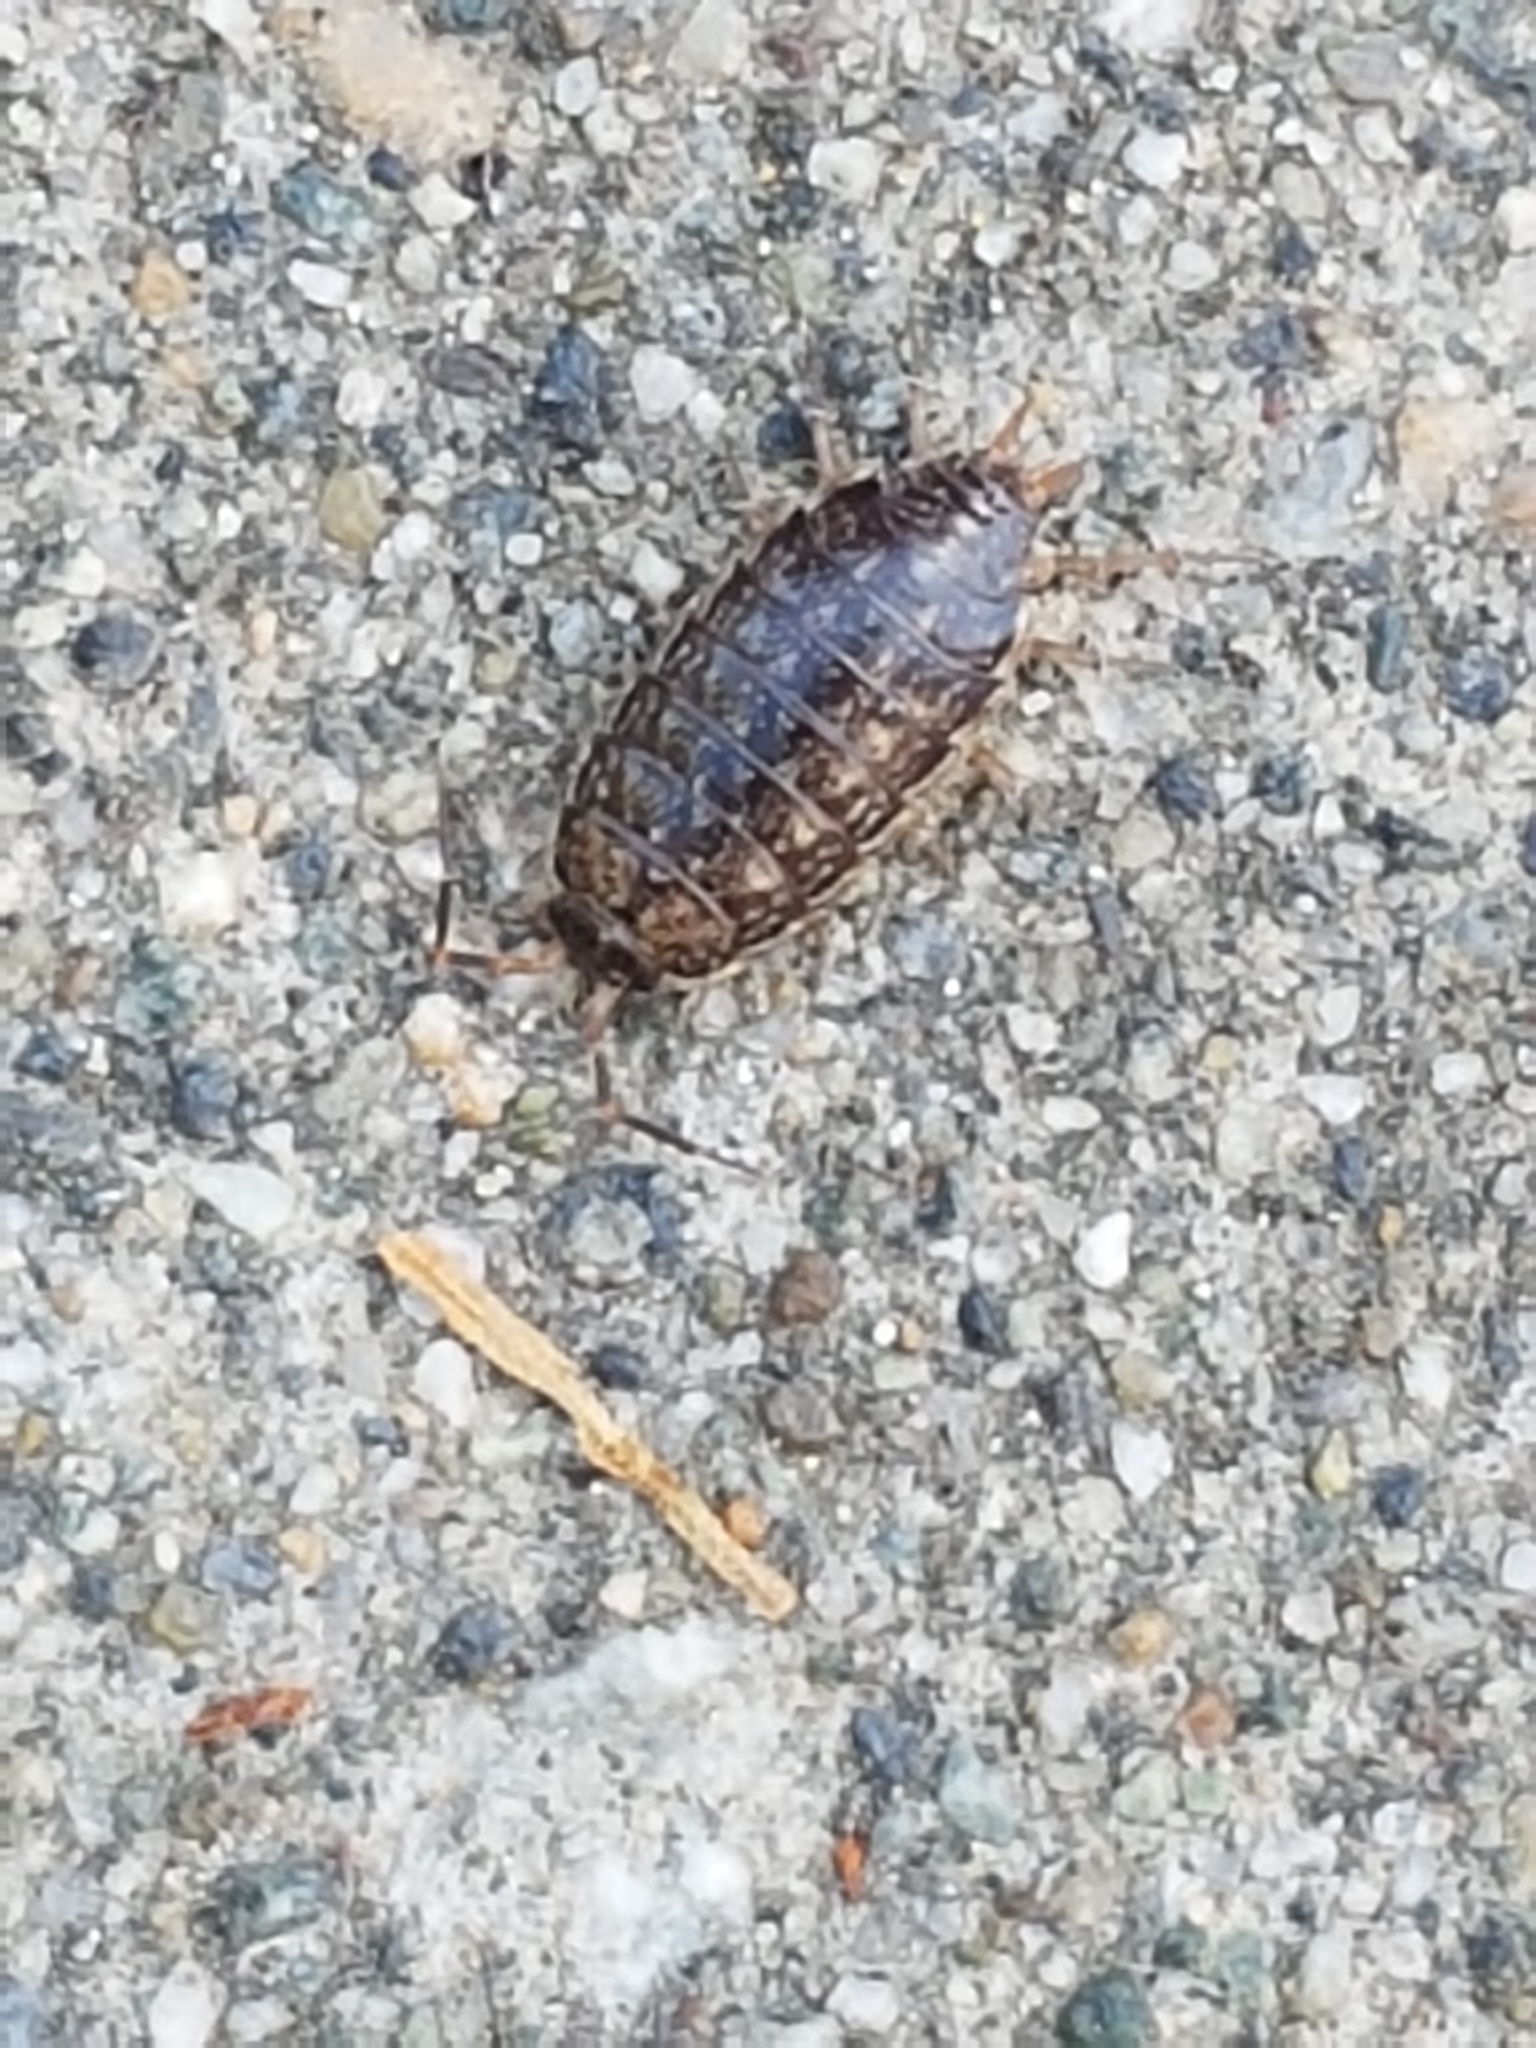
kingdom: Animalia
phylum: Arthropoda
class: Malacostraca
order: Isopoda
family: Philosciidae
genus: Philoscia
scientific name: Philoscia muscorum
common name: Common striped woodlouse
